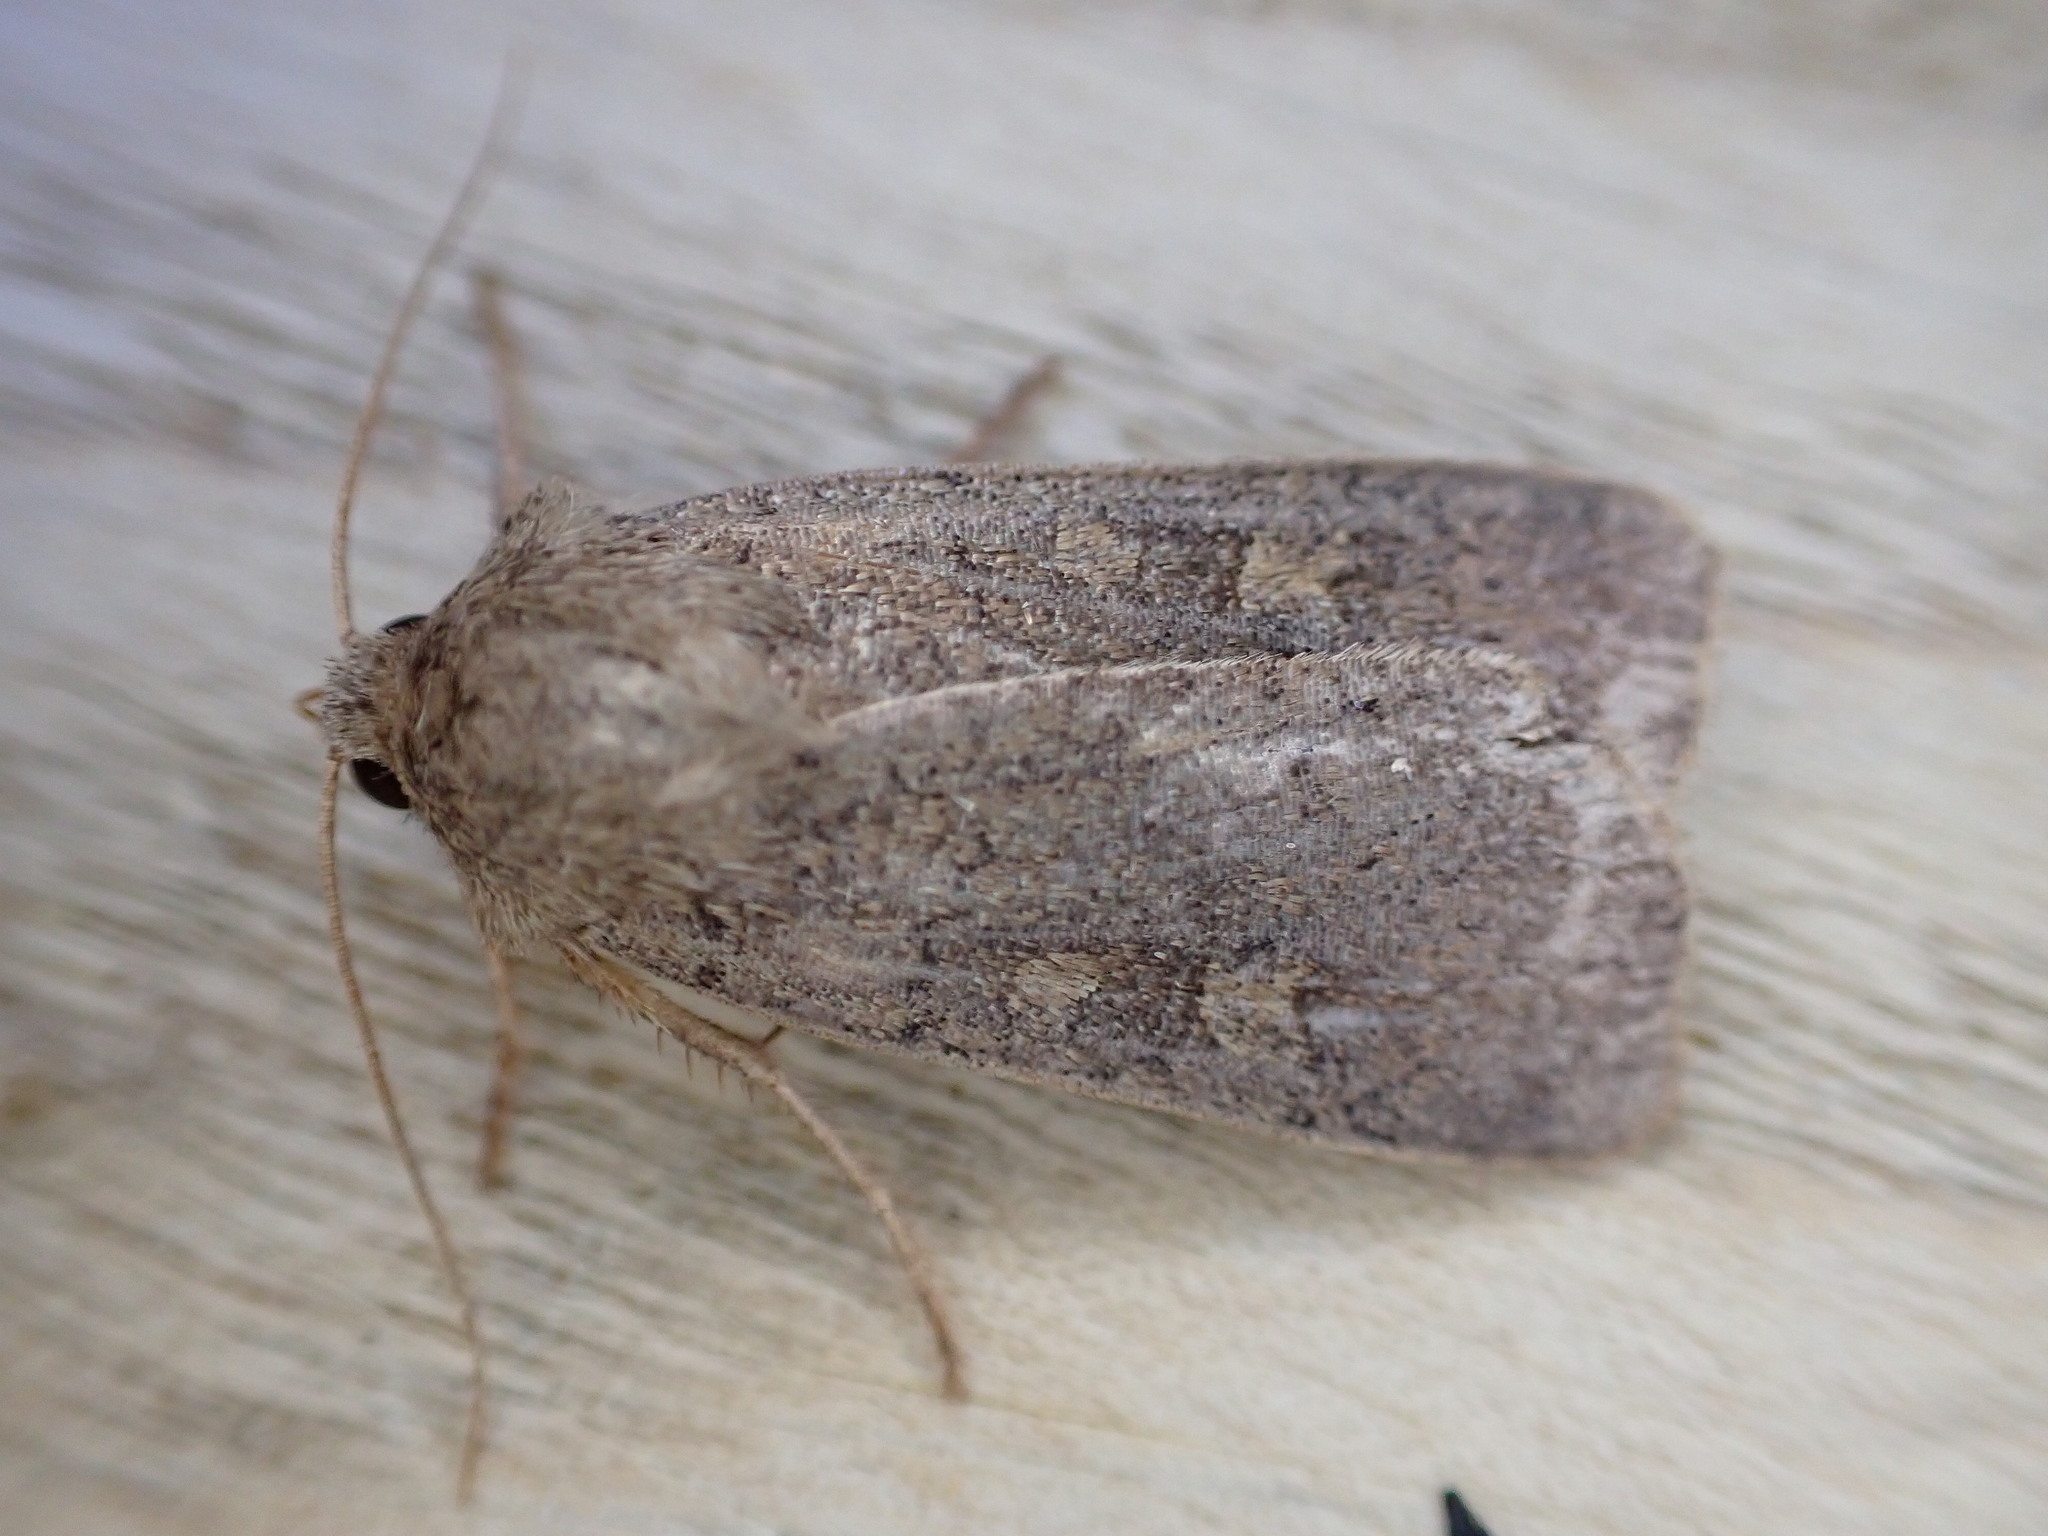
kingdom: Animalia
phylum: Arthropoda
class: Insecta
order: Lepidoptera
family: Noctuidae
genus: Xestia
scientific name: Xestia xanthographa
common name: Square-spot rustic
